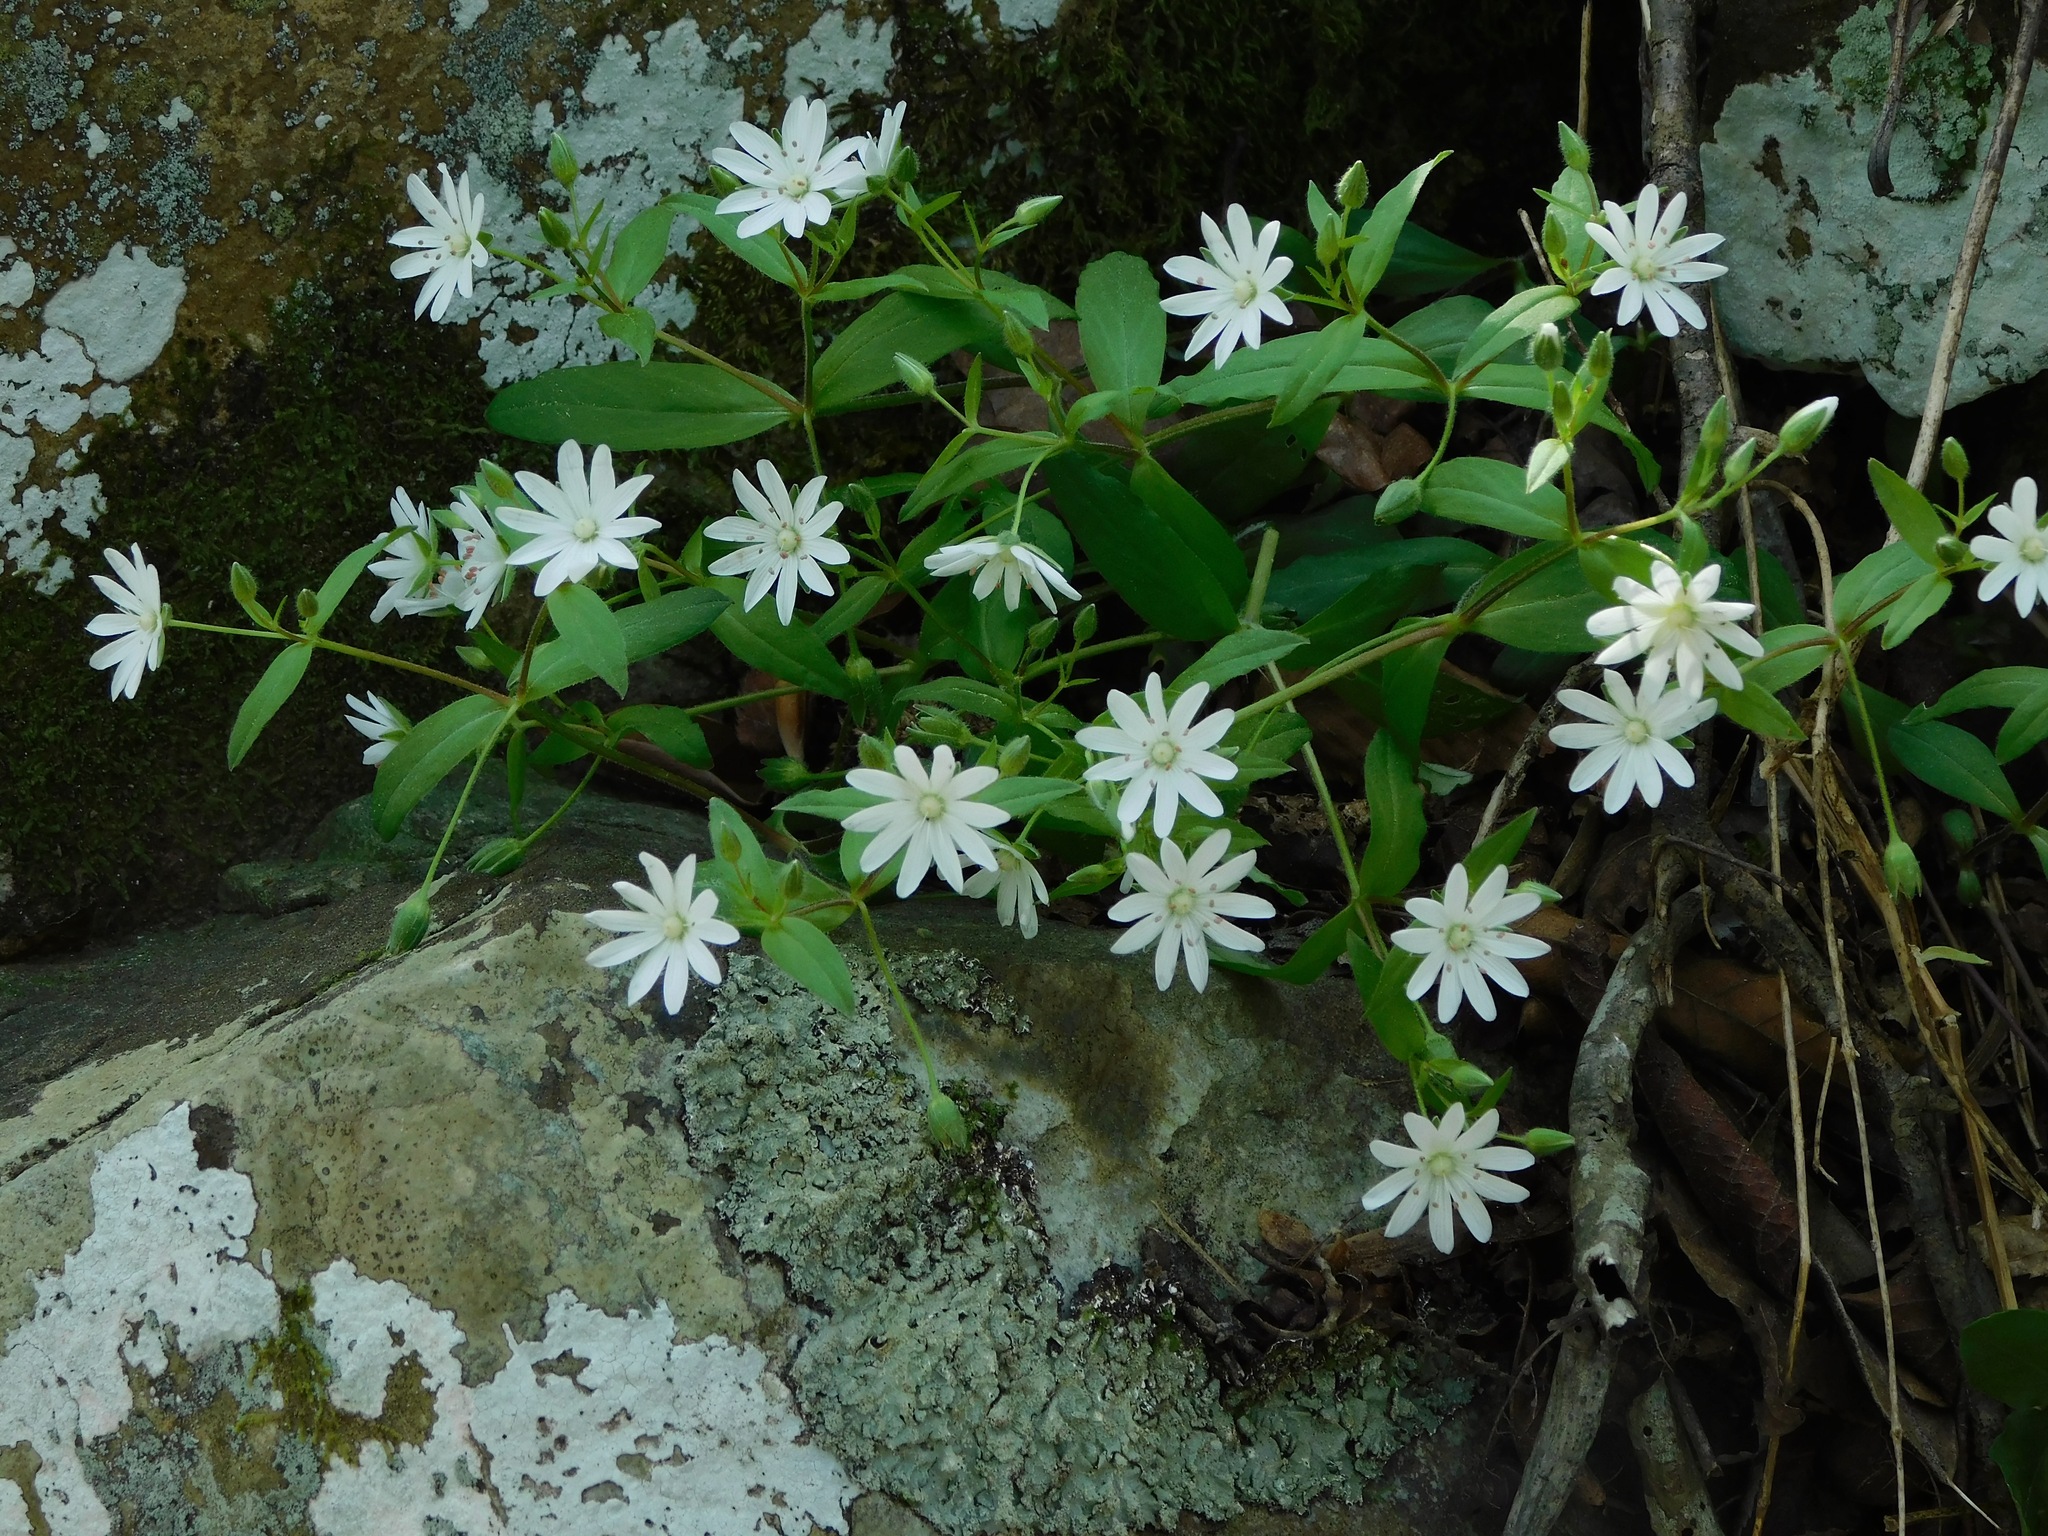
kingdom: Plantae
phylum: Tracheophyta
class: Magnoliopsida
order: Caryophyllales
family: Caryophyllaceae
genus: Stellaria
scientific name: Stellaria pubera
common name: Star chickweed
